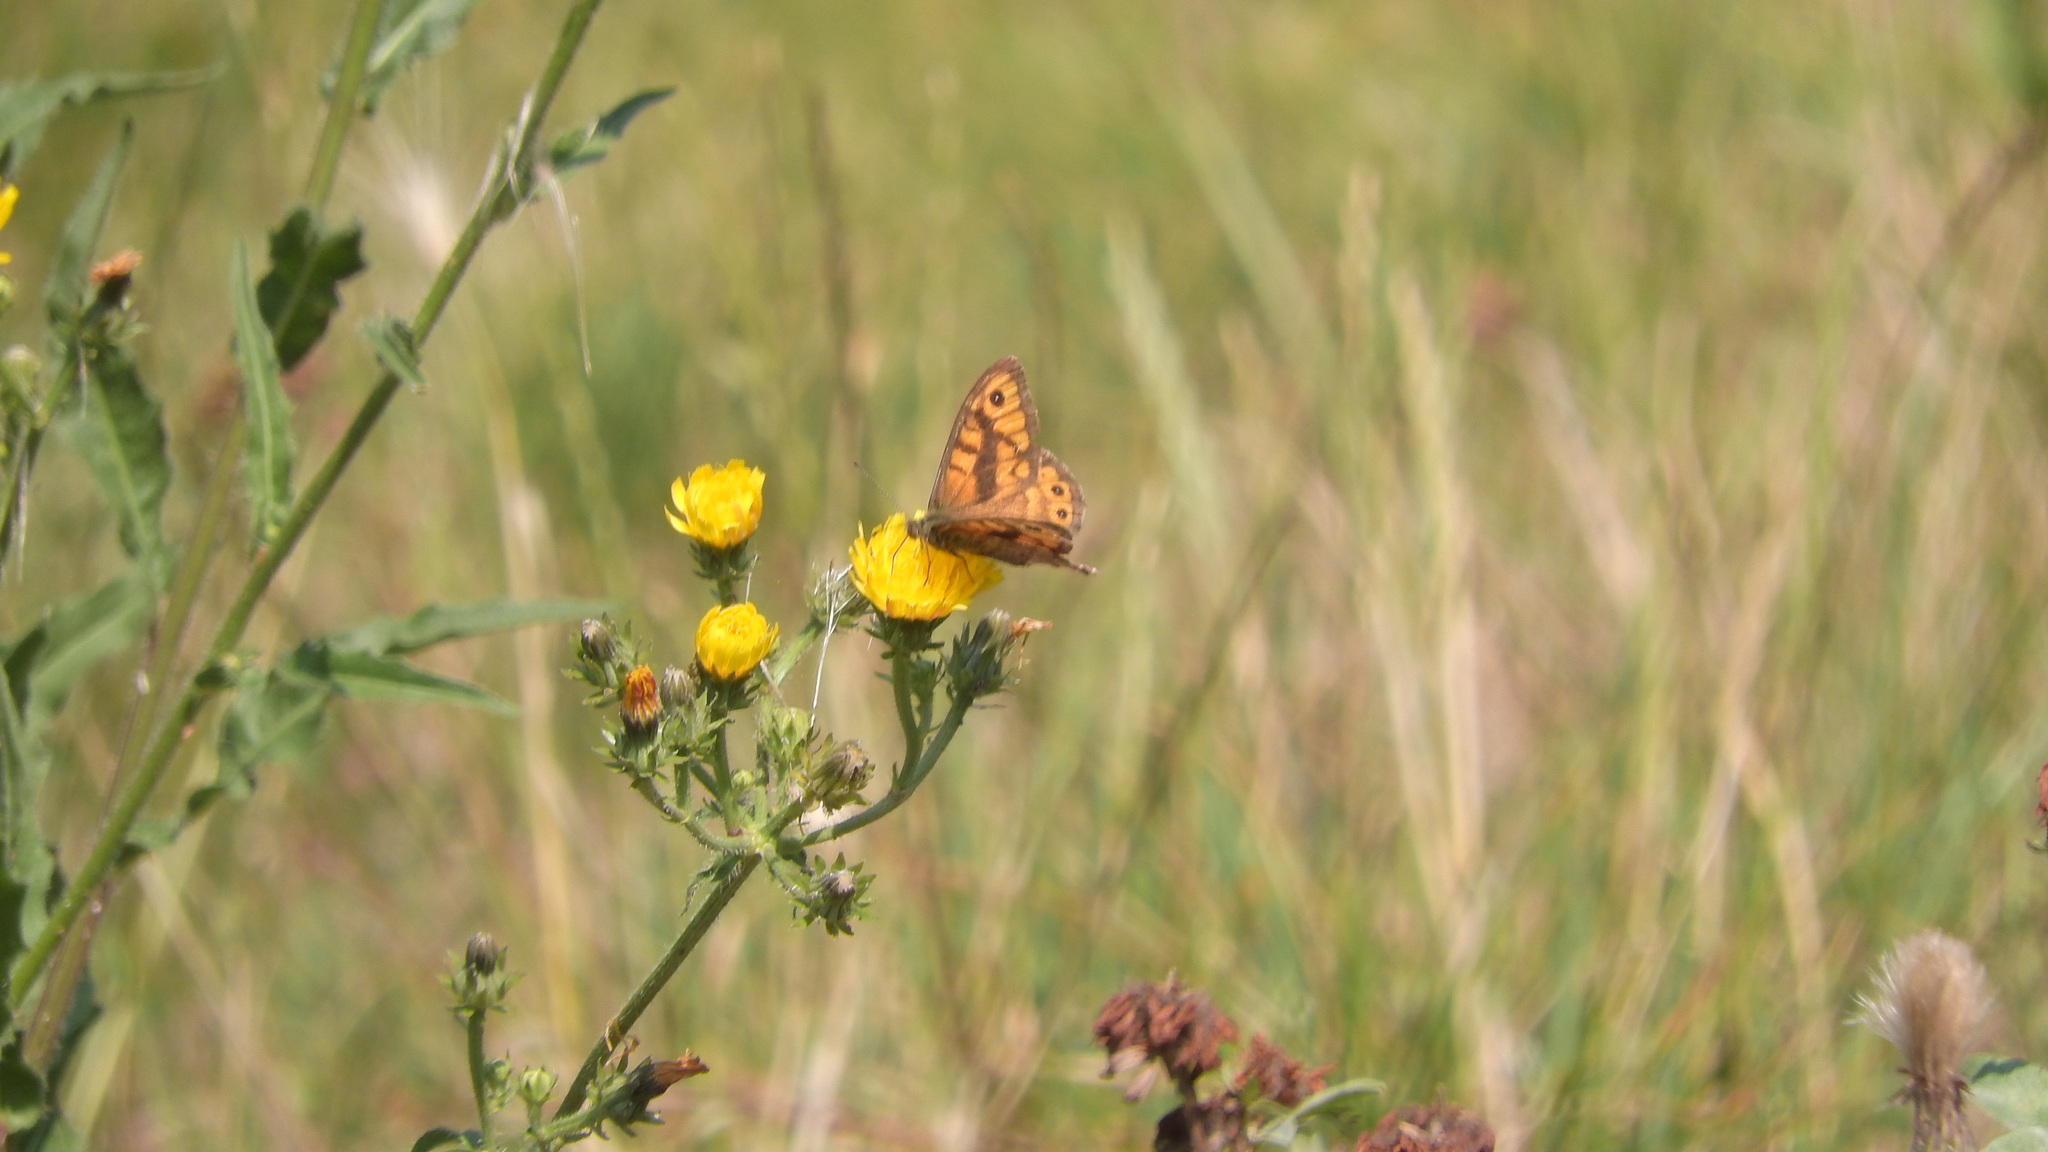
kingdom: Animalia
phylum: Arthropoda
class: Insecta
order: Lepidoptera
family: Nymphalidae
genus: Pararge
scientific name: Pararge Lasiommata megera
